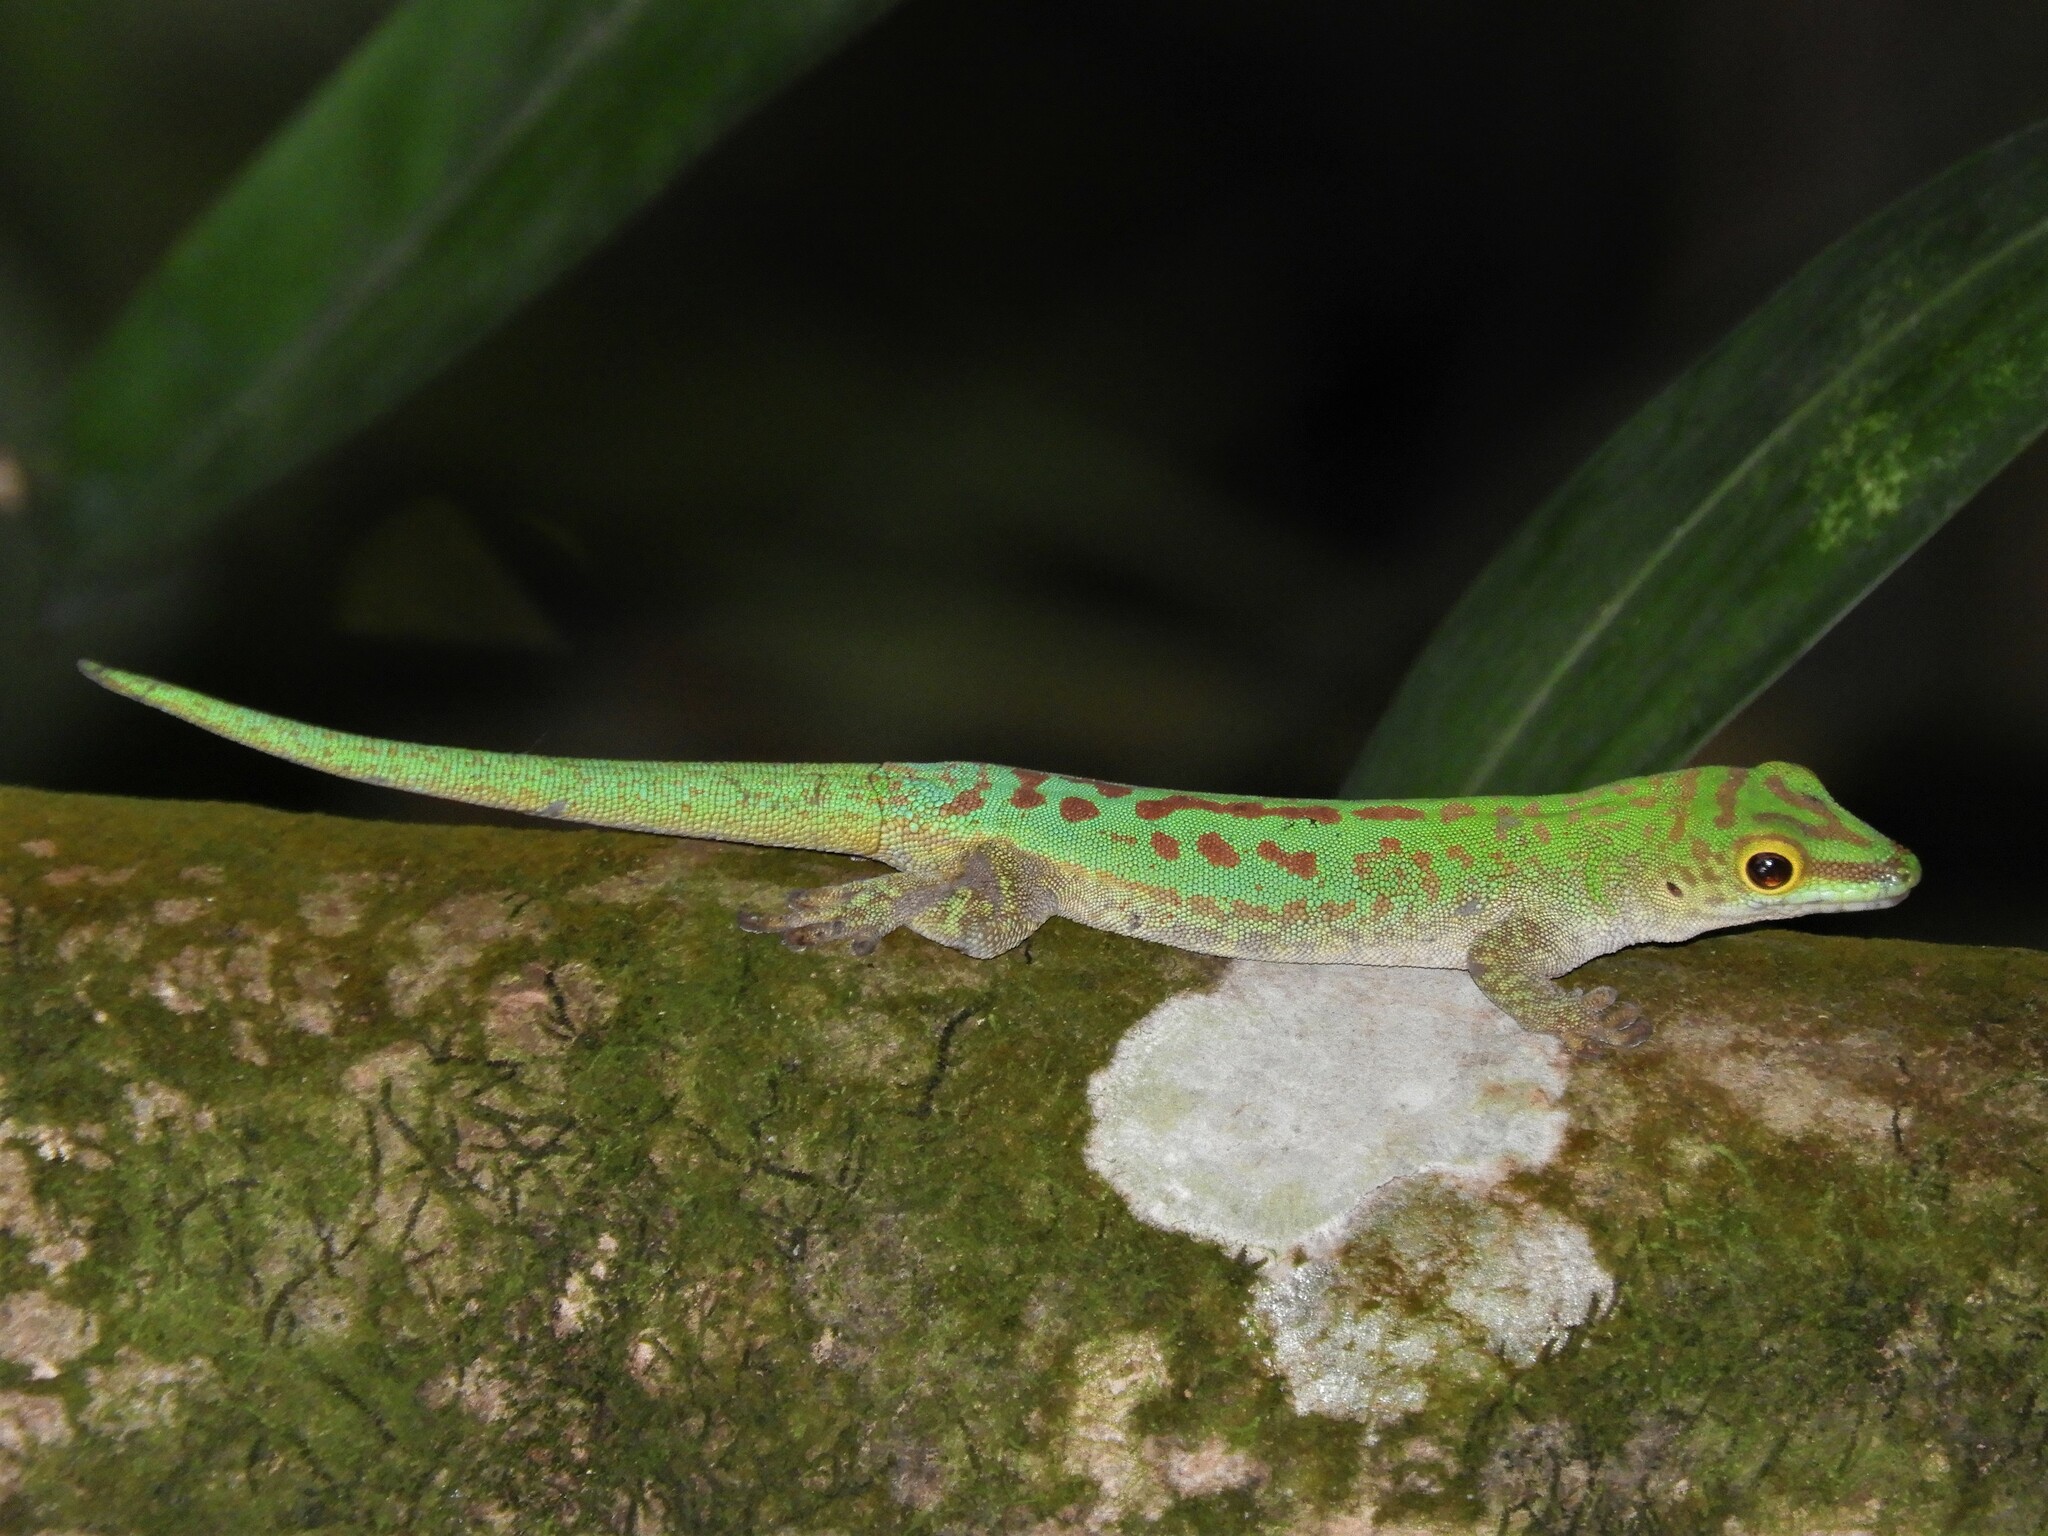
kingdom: Animalia
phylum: Chordata
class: Squamata
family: Gekkonidae
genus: Phelsuma
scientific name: Phelsuma sundbergi
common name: Seychelles giant day gecko
